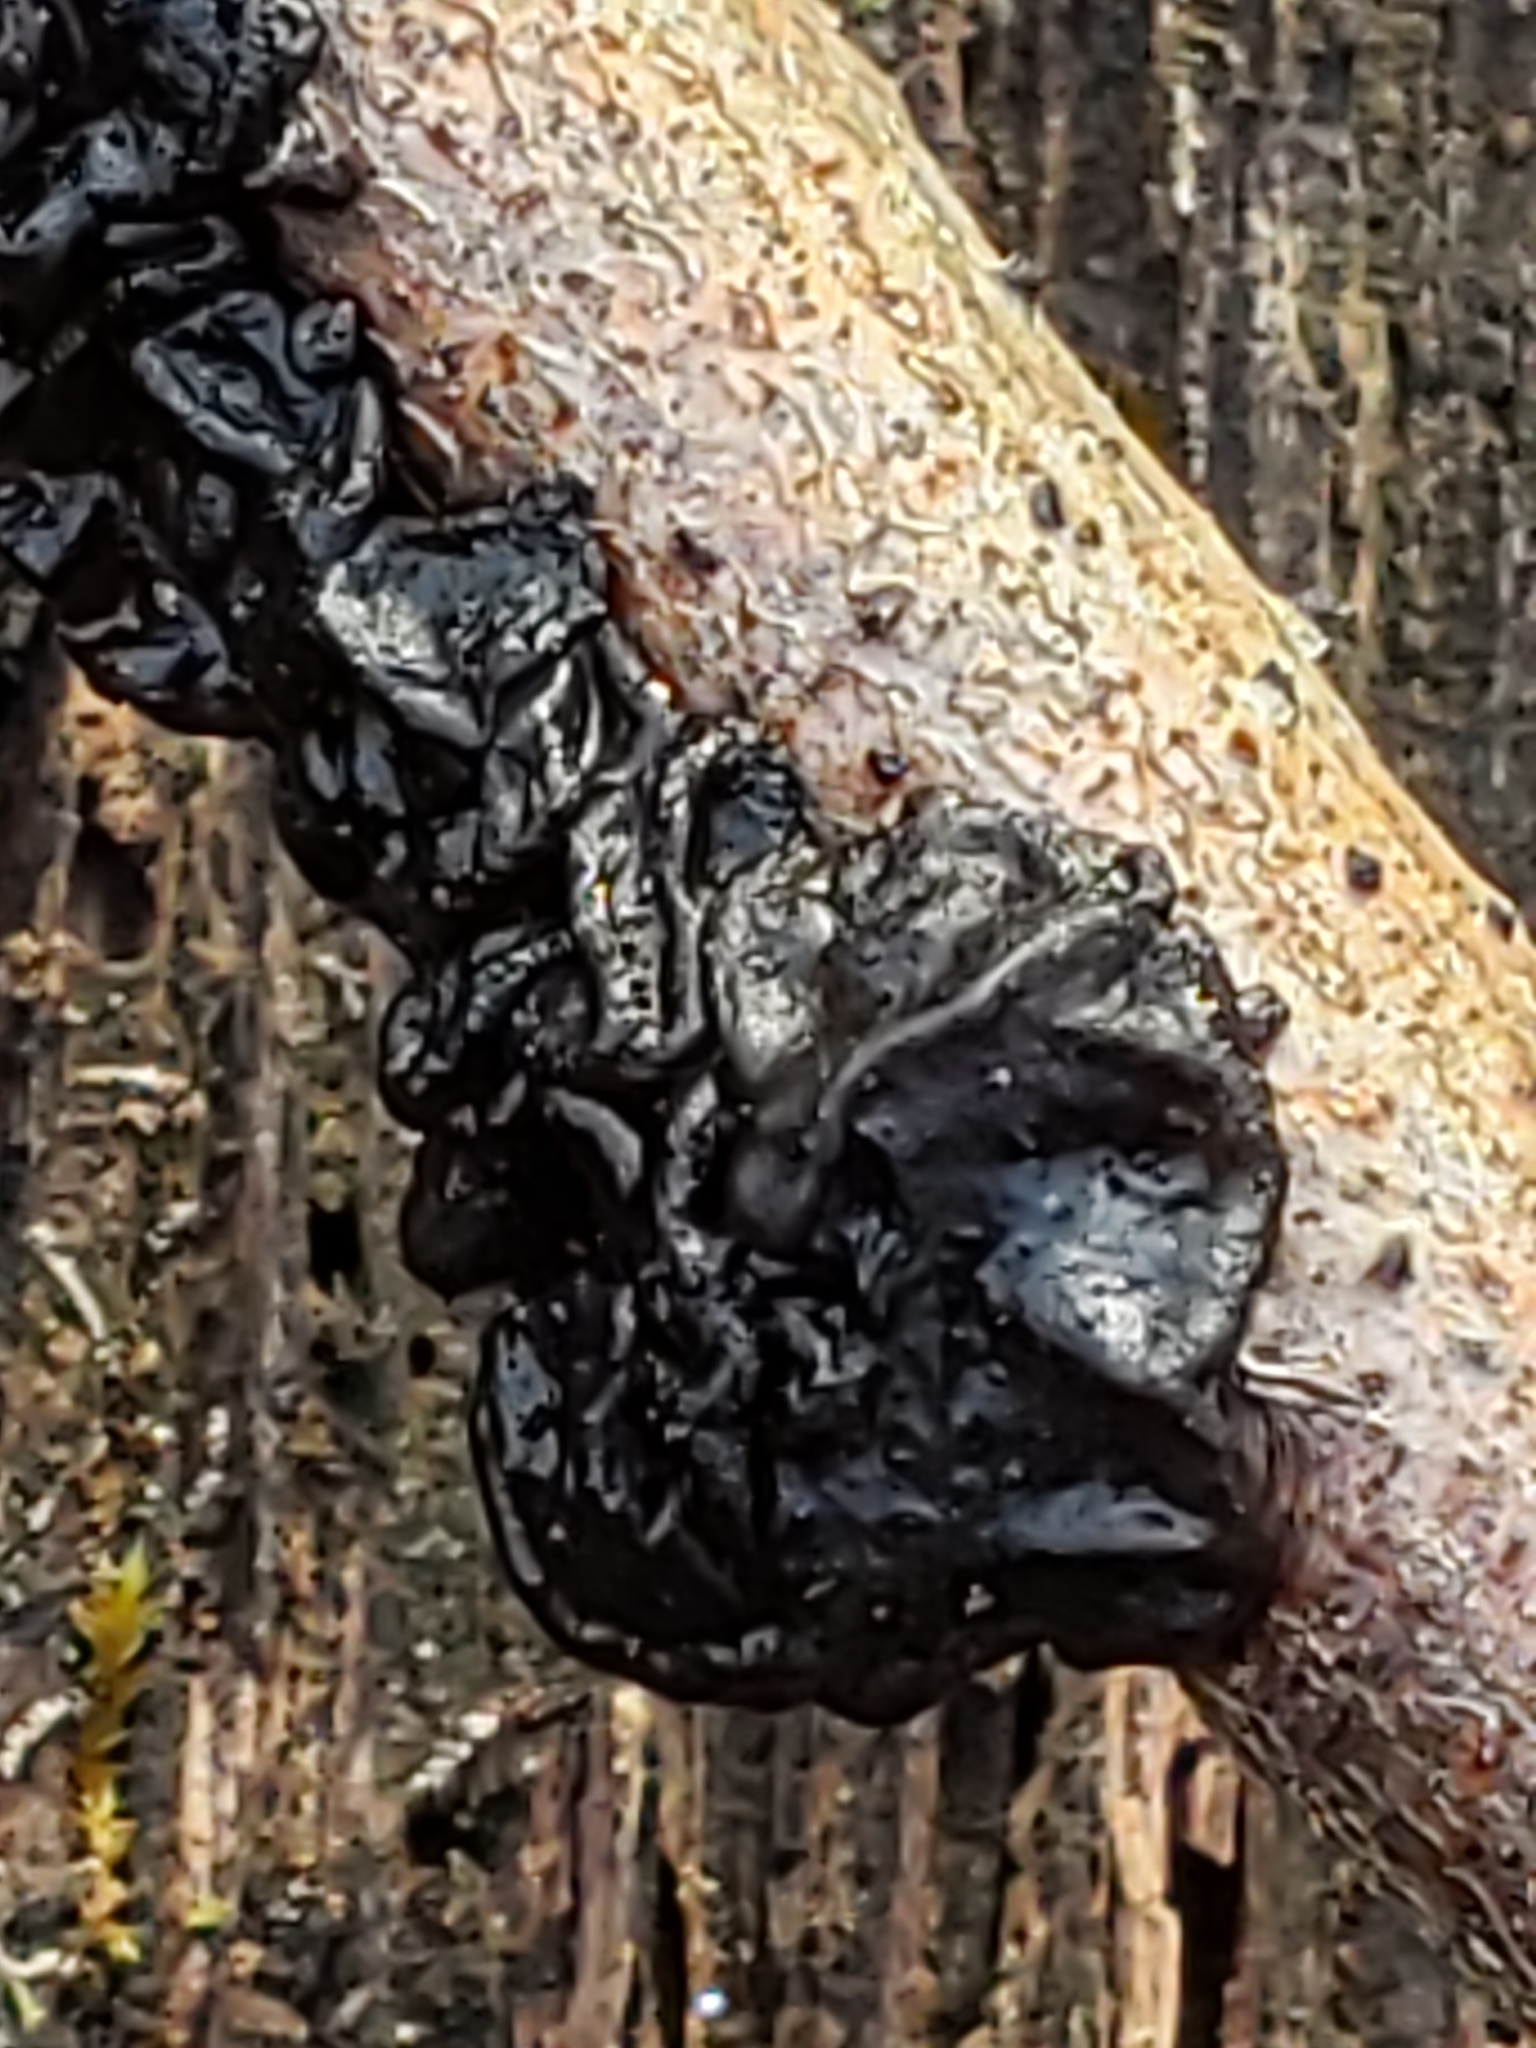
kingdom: Fungi
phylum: Basidiomycota
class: Agaricomycetes
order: Auriculariales
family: Auriculariaceae
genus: Exidia
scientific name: Exidia glandulosa
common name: Witches' butter
